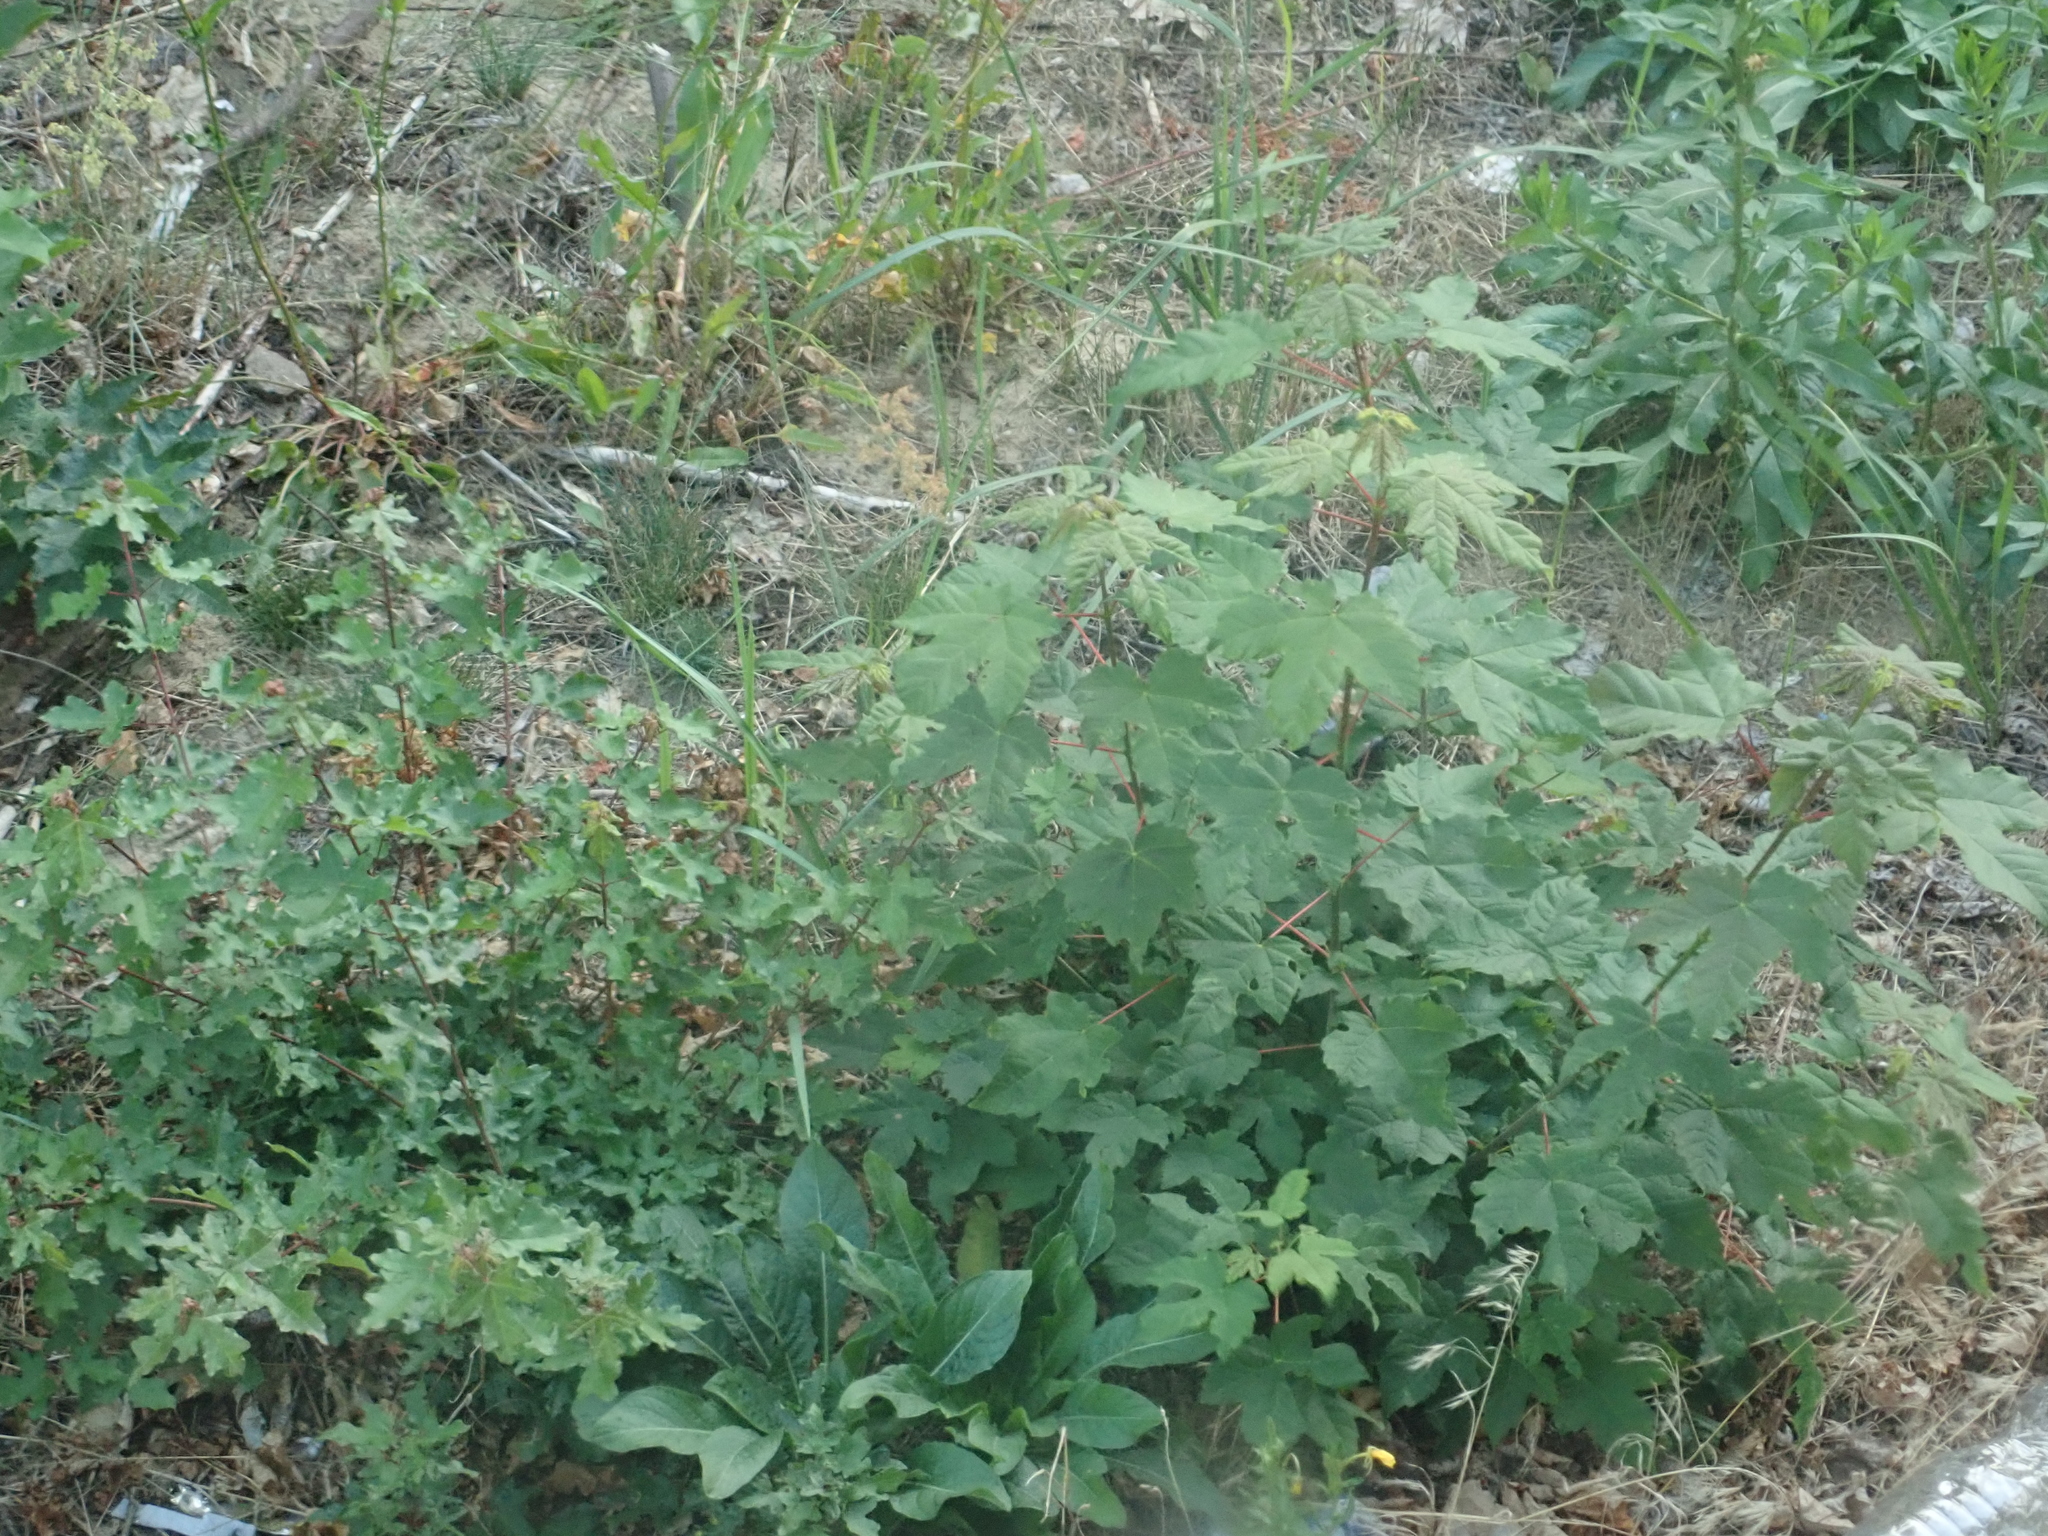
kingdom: Plantae
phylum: Tracheophyta
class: Magnoliopsida
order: Sapindales
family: Sapindaceae
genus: Acer
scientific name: Acer pseudoplatanus
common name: Sycamore
